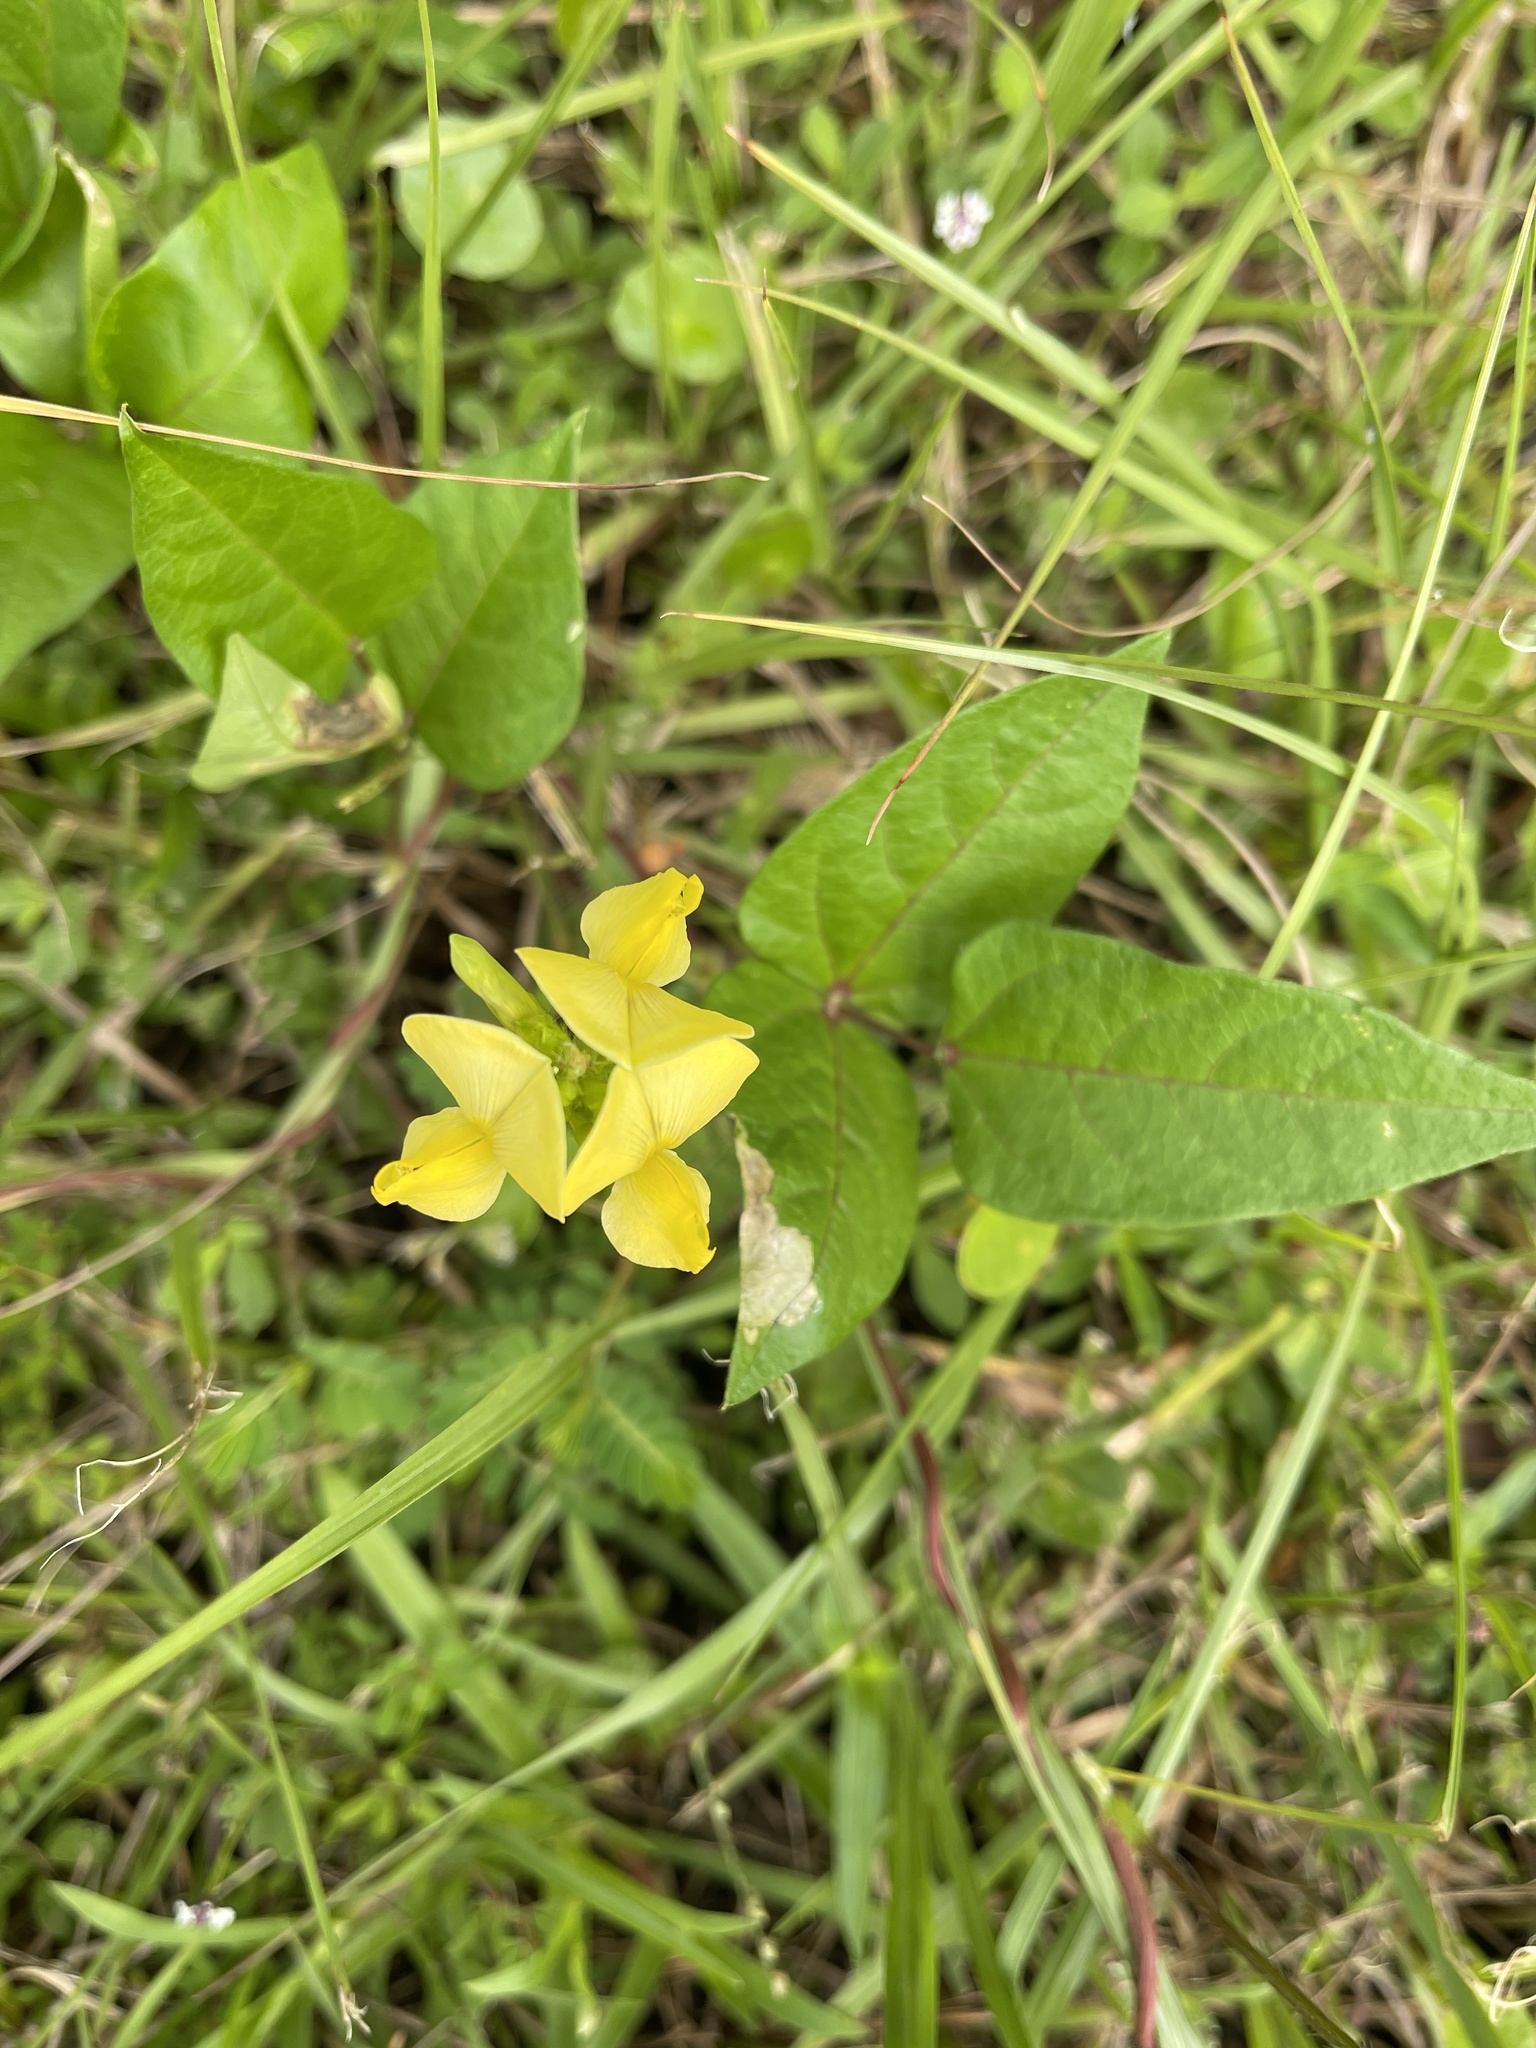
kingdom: Plantae
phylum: Tracheophyta
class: Magnoliopsida
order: Fabales
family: Fabaceae
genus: Vigna
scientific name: Vigna luteola
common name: Hairypod cowpea
